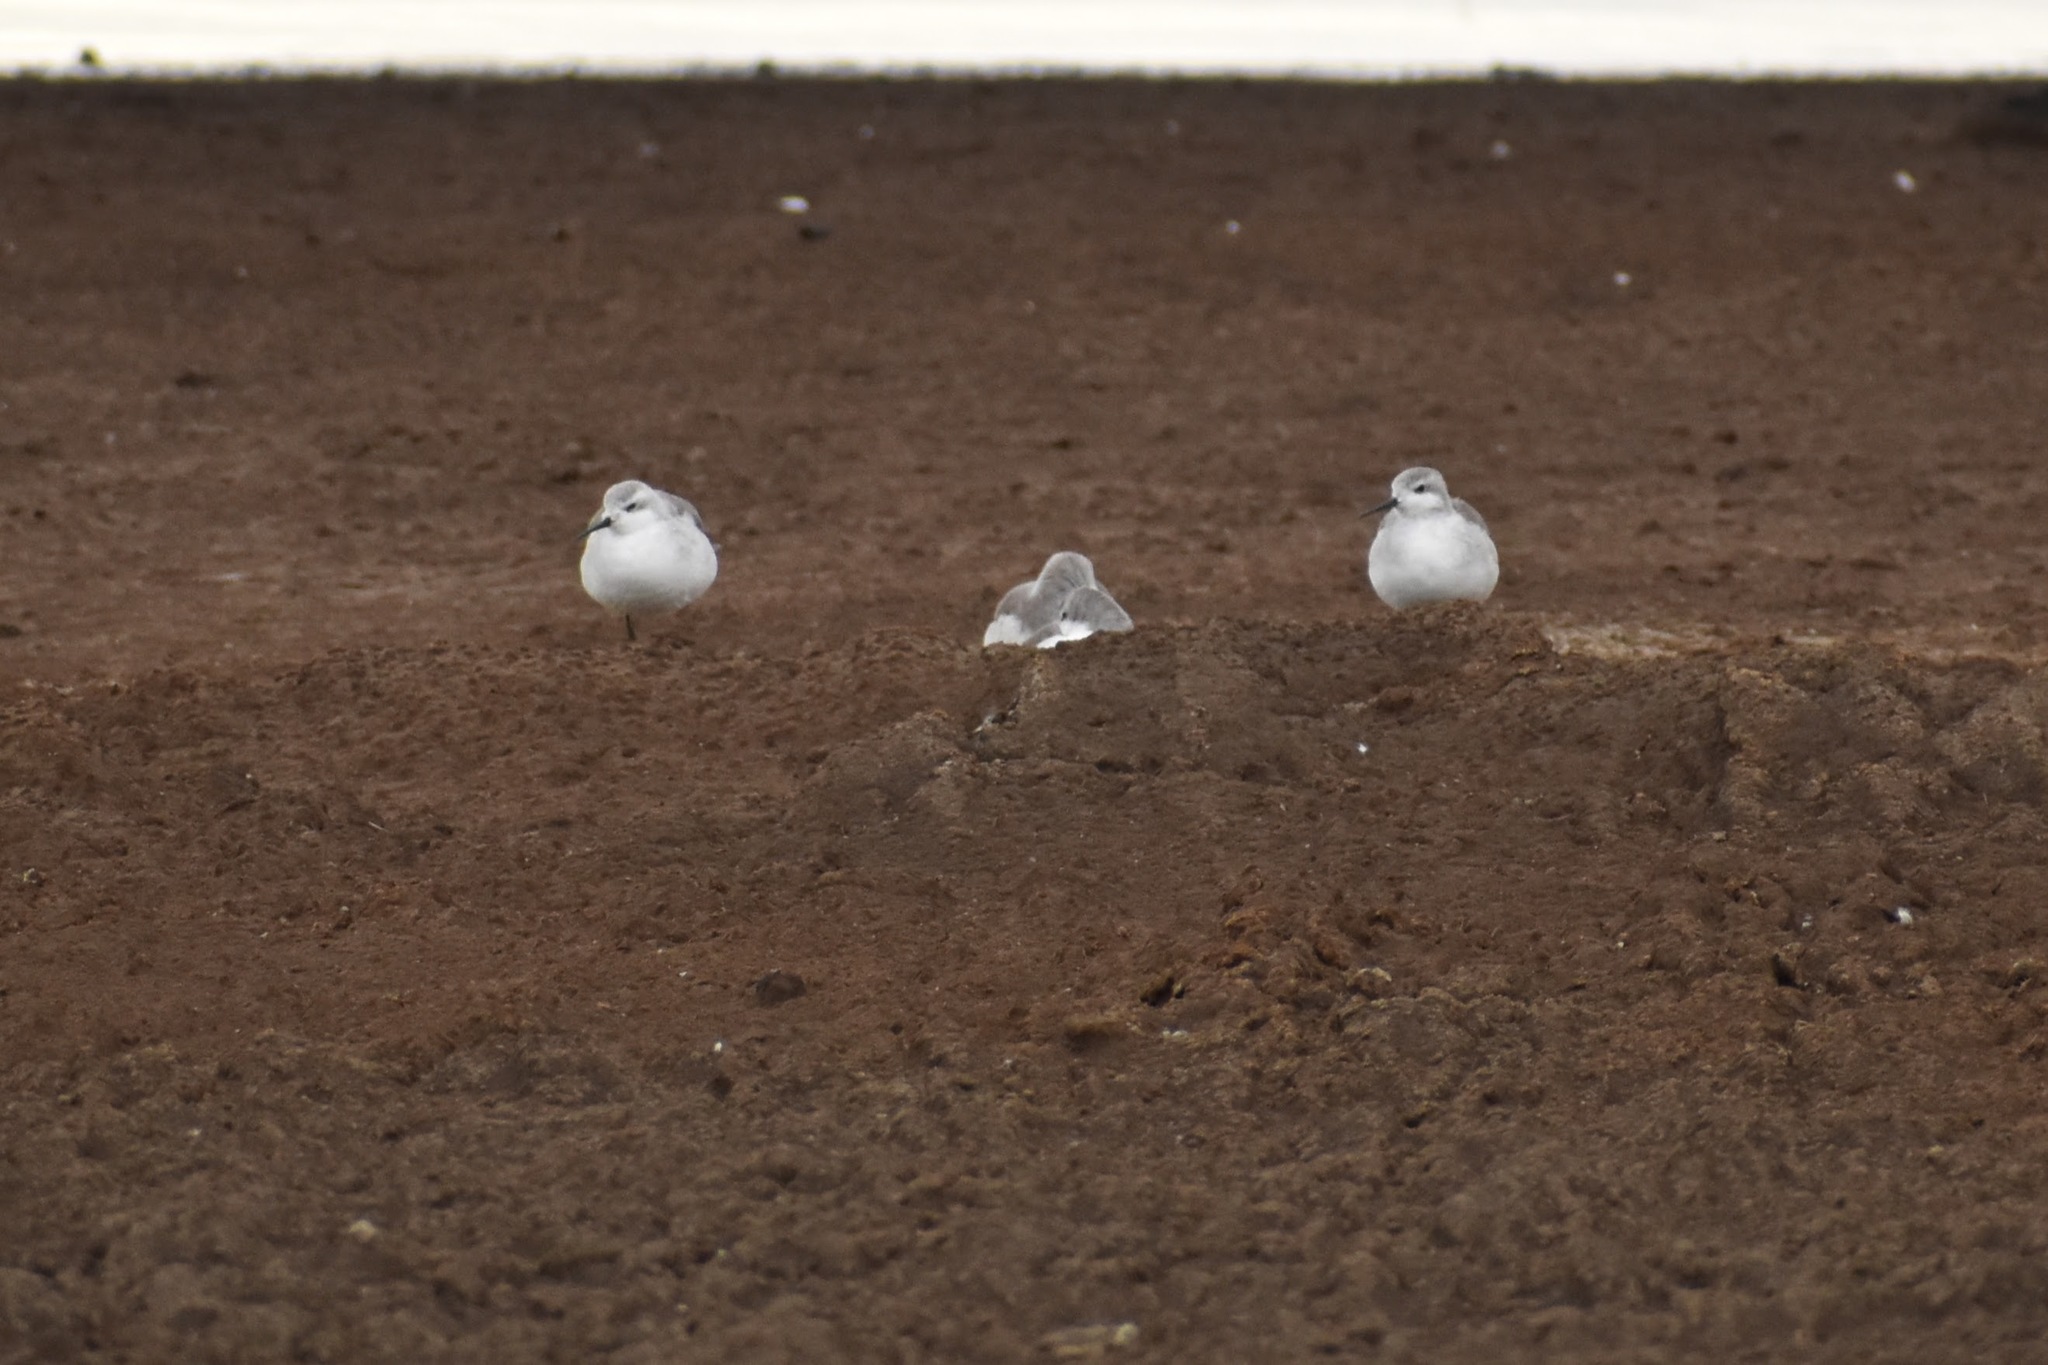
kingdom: Animalia
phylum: Chordata
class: Aves
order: Charadriiformes
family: Scolopacidae
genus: Phalaropus
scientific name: Phalaropus tricolor
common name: Wilson's phalarope
